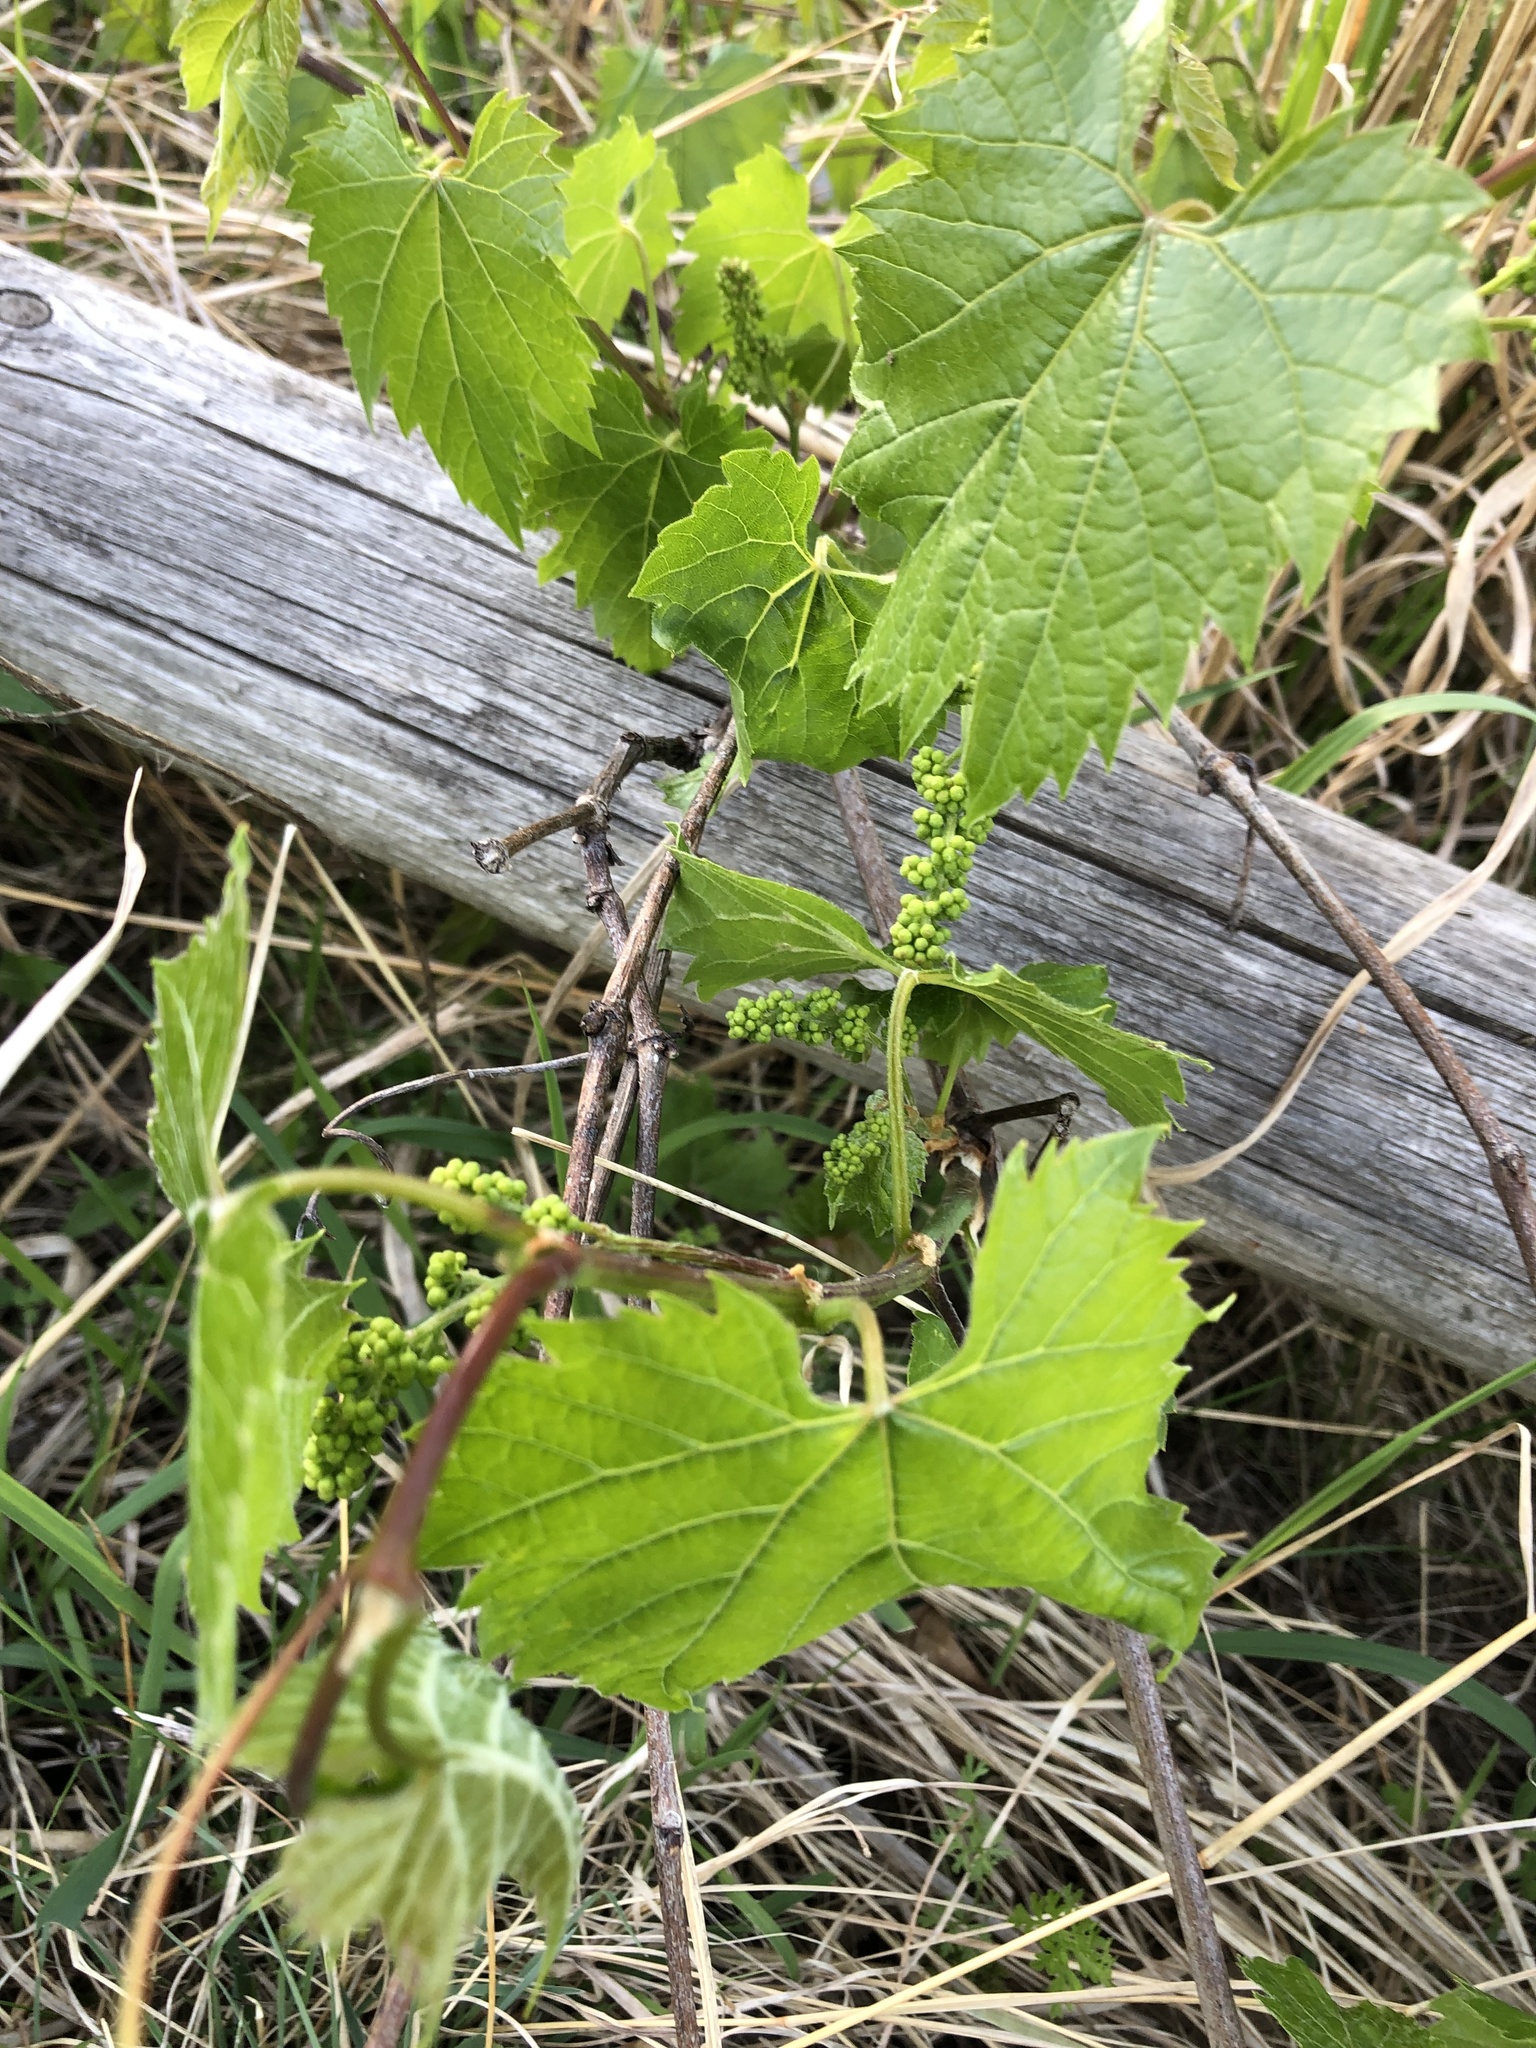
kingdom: Plantae
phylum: Tracheophyta
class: Magnoliopsida
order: Vitales
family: Vitaceae
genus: Vitis
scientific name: Vitis riparia
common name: Frost grape
